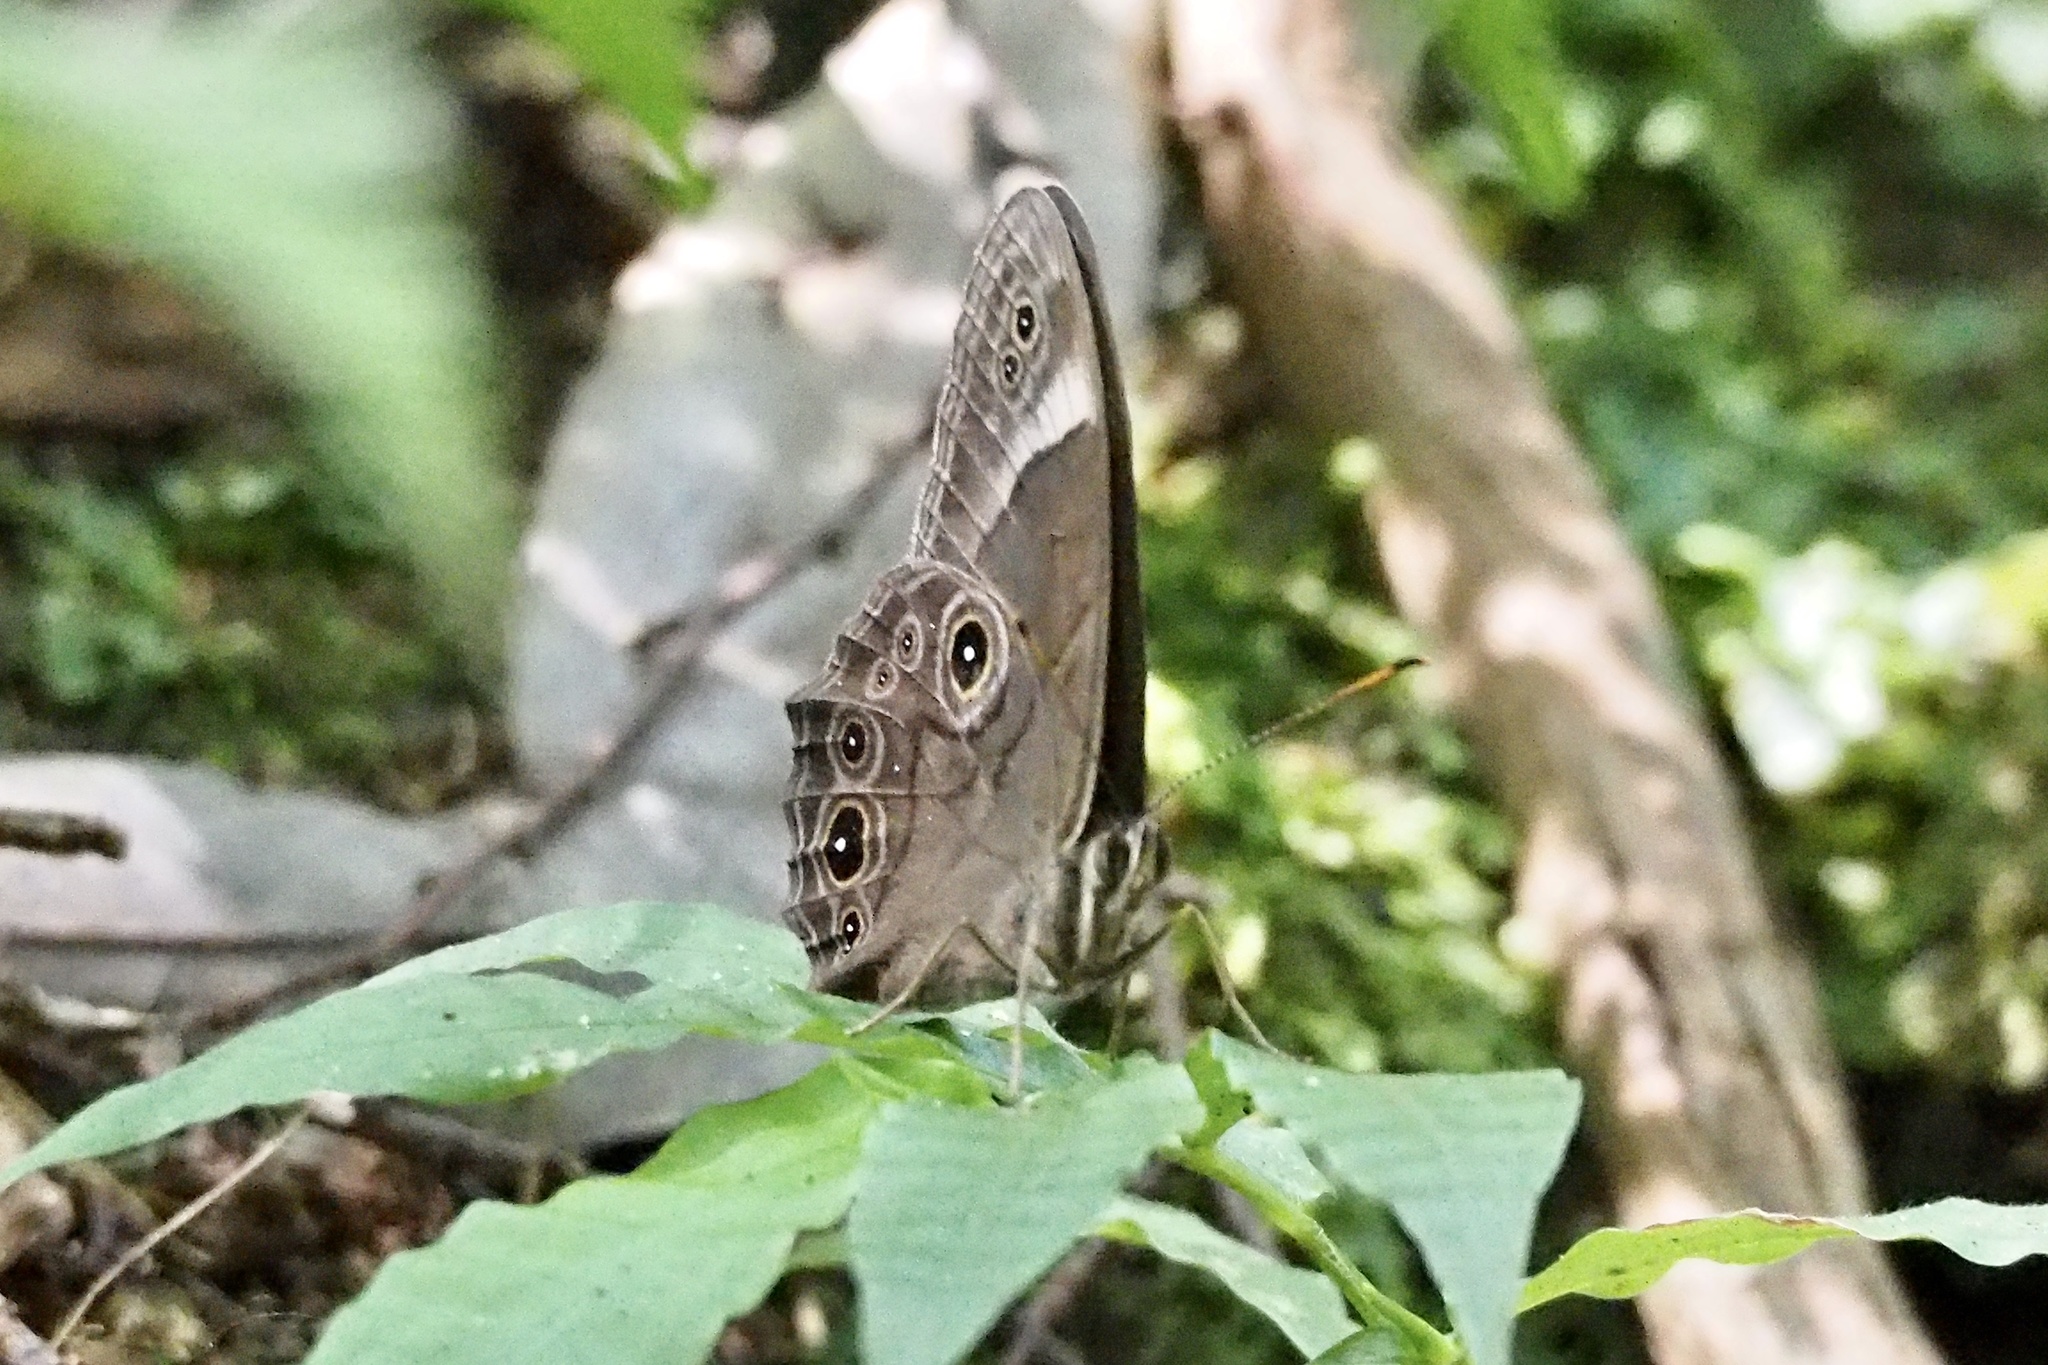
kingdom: Animalia
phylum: Arthropoda
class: Insecta
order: Lepidoptera
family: Nymphalidae
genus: Lethe
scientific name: Lethe diana
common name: Diana treebrown
